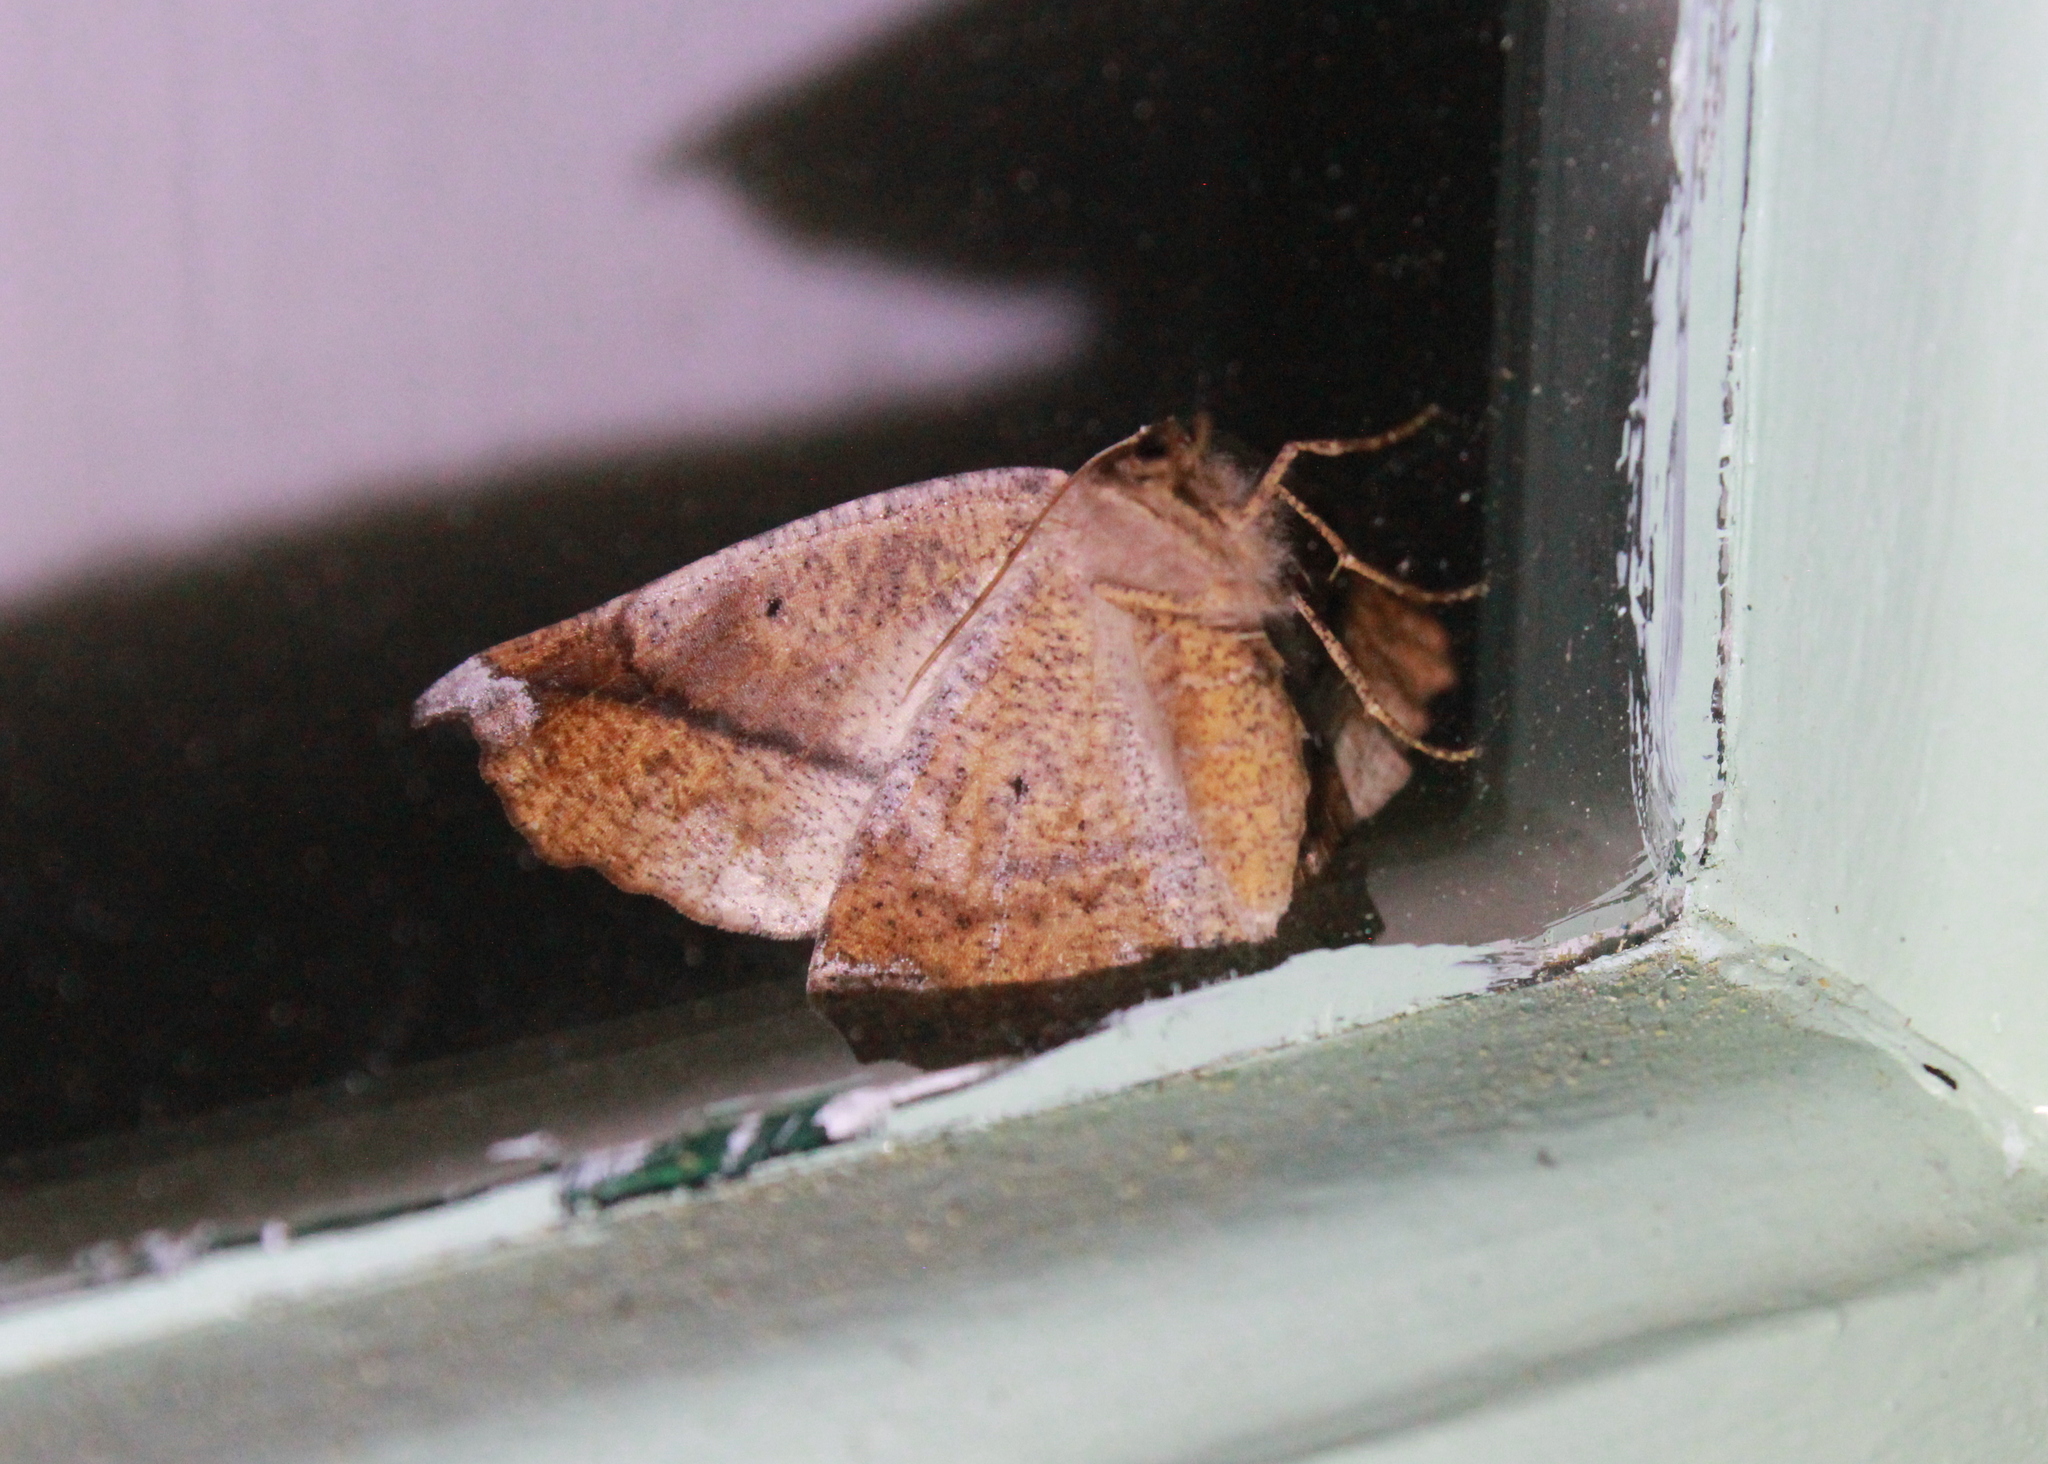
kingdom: Animalia
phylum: Arthropoda
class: Insecta
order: Lepidoptera
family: Geometridae
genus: Eutrapela
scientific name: Eutrapela clemataria
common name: Curved-toothed geometer
